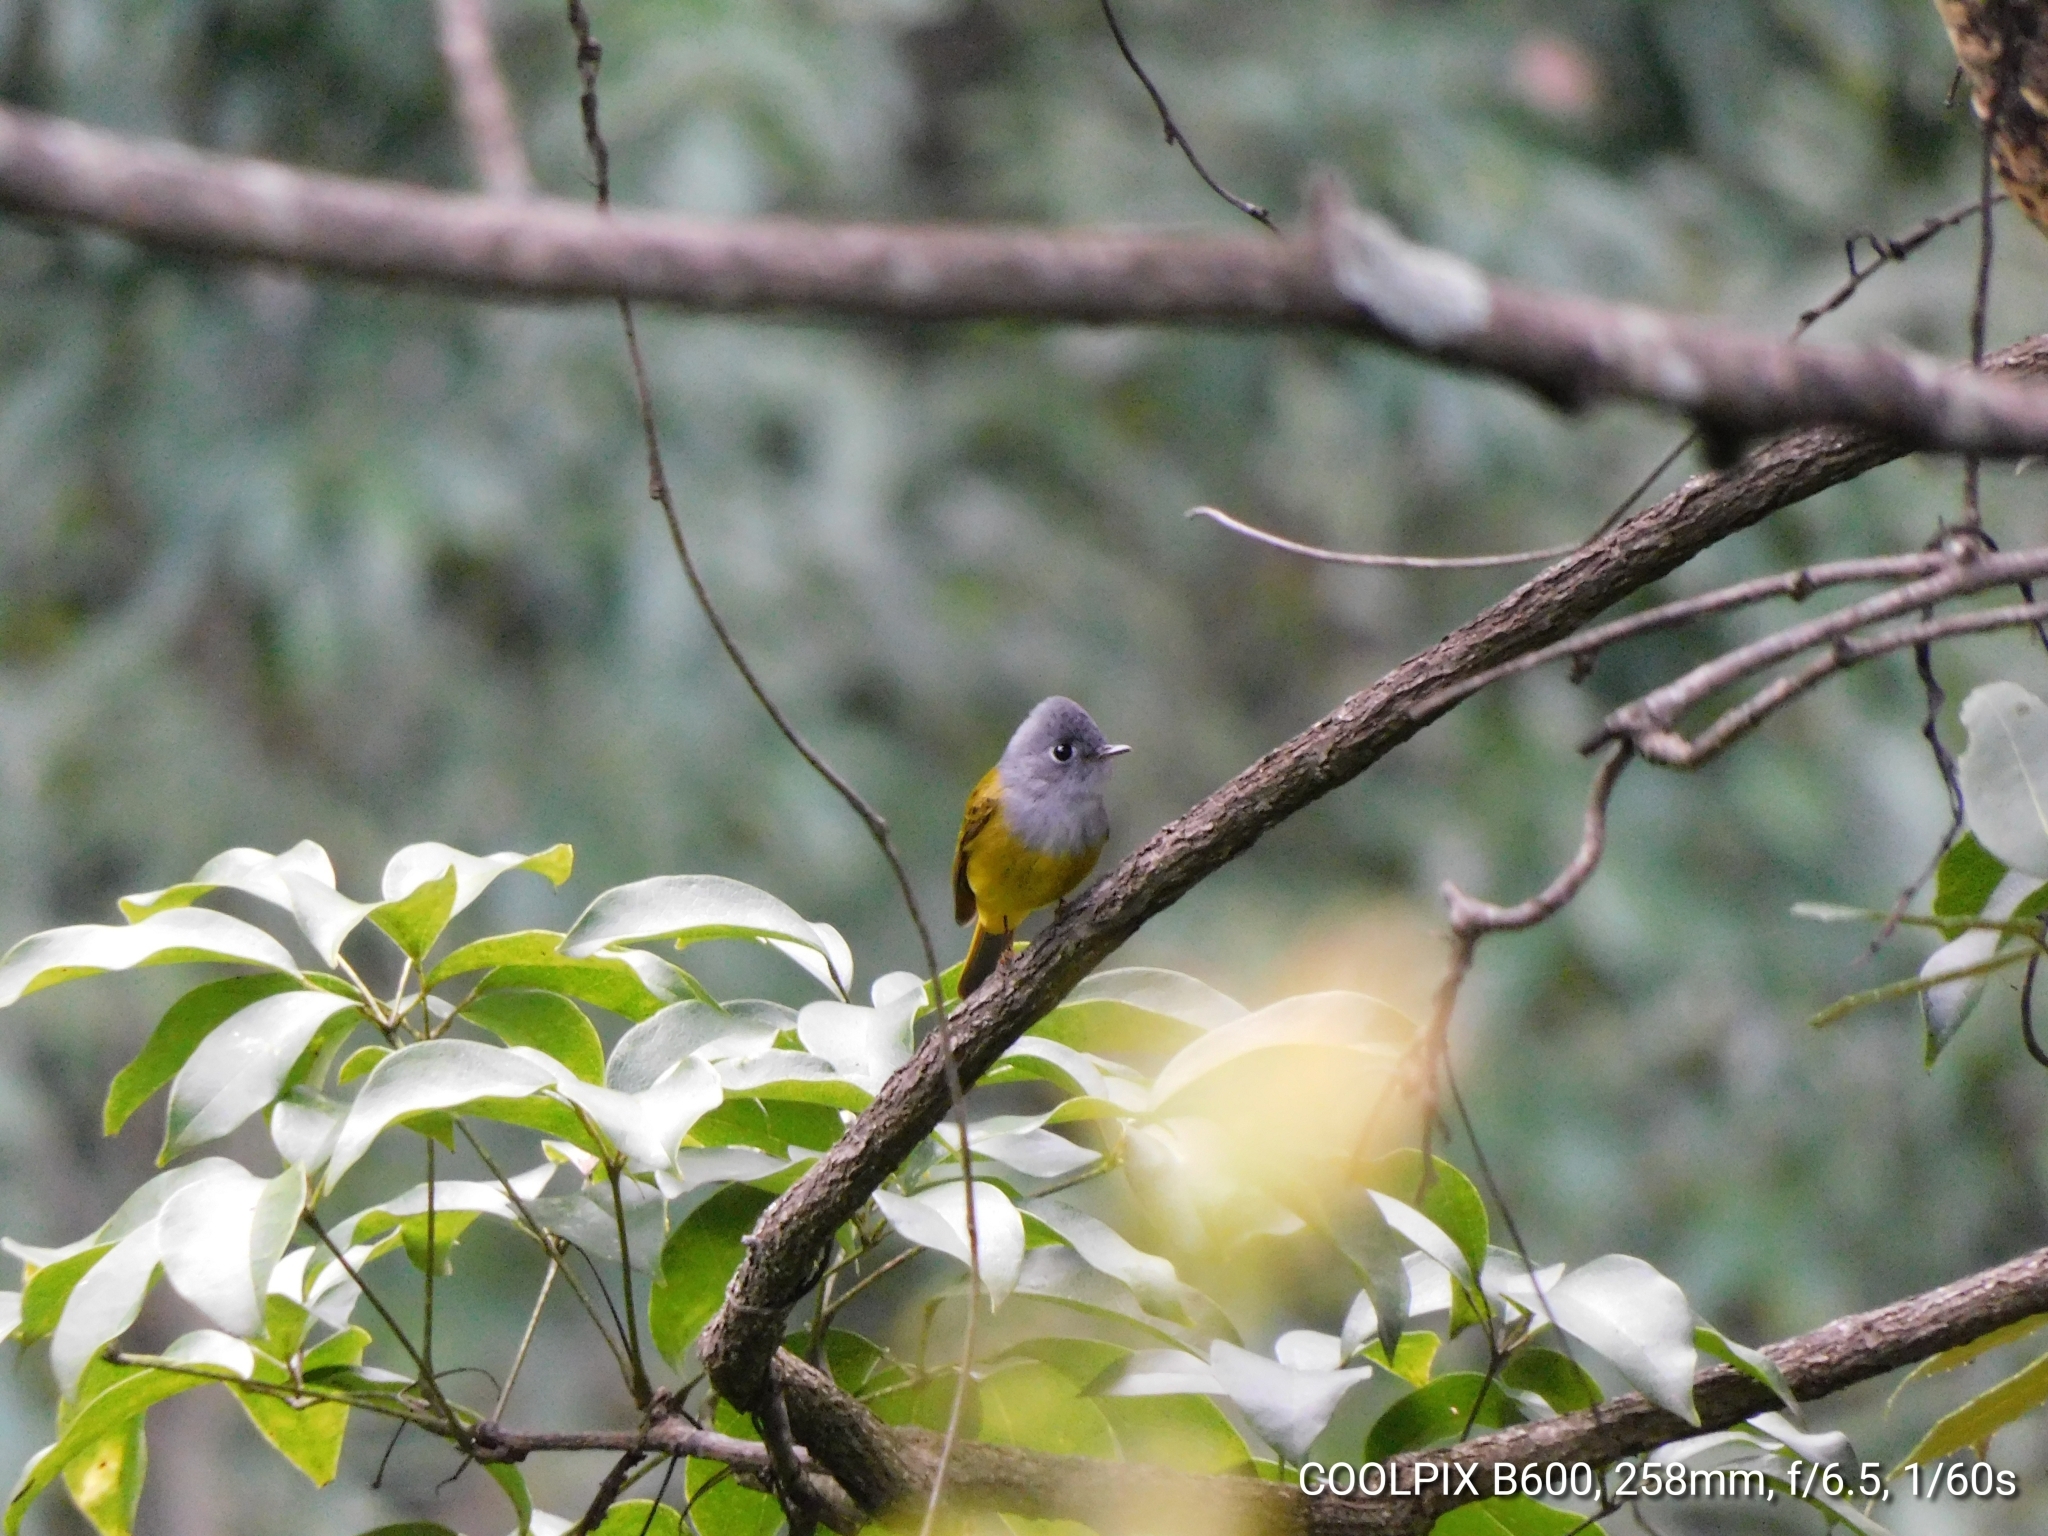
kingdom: Animalia
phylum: Chordata
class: Aves
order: Passeriformes
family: Stenostiridae
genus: Culicicapa
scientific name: Culicicapa ceylonensis
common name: Grey-headed canary-flycatcher
